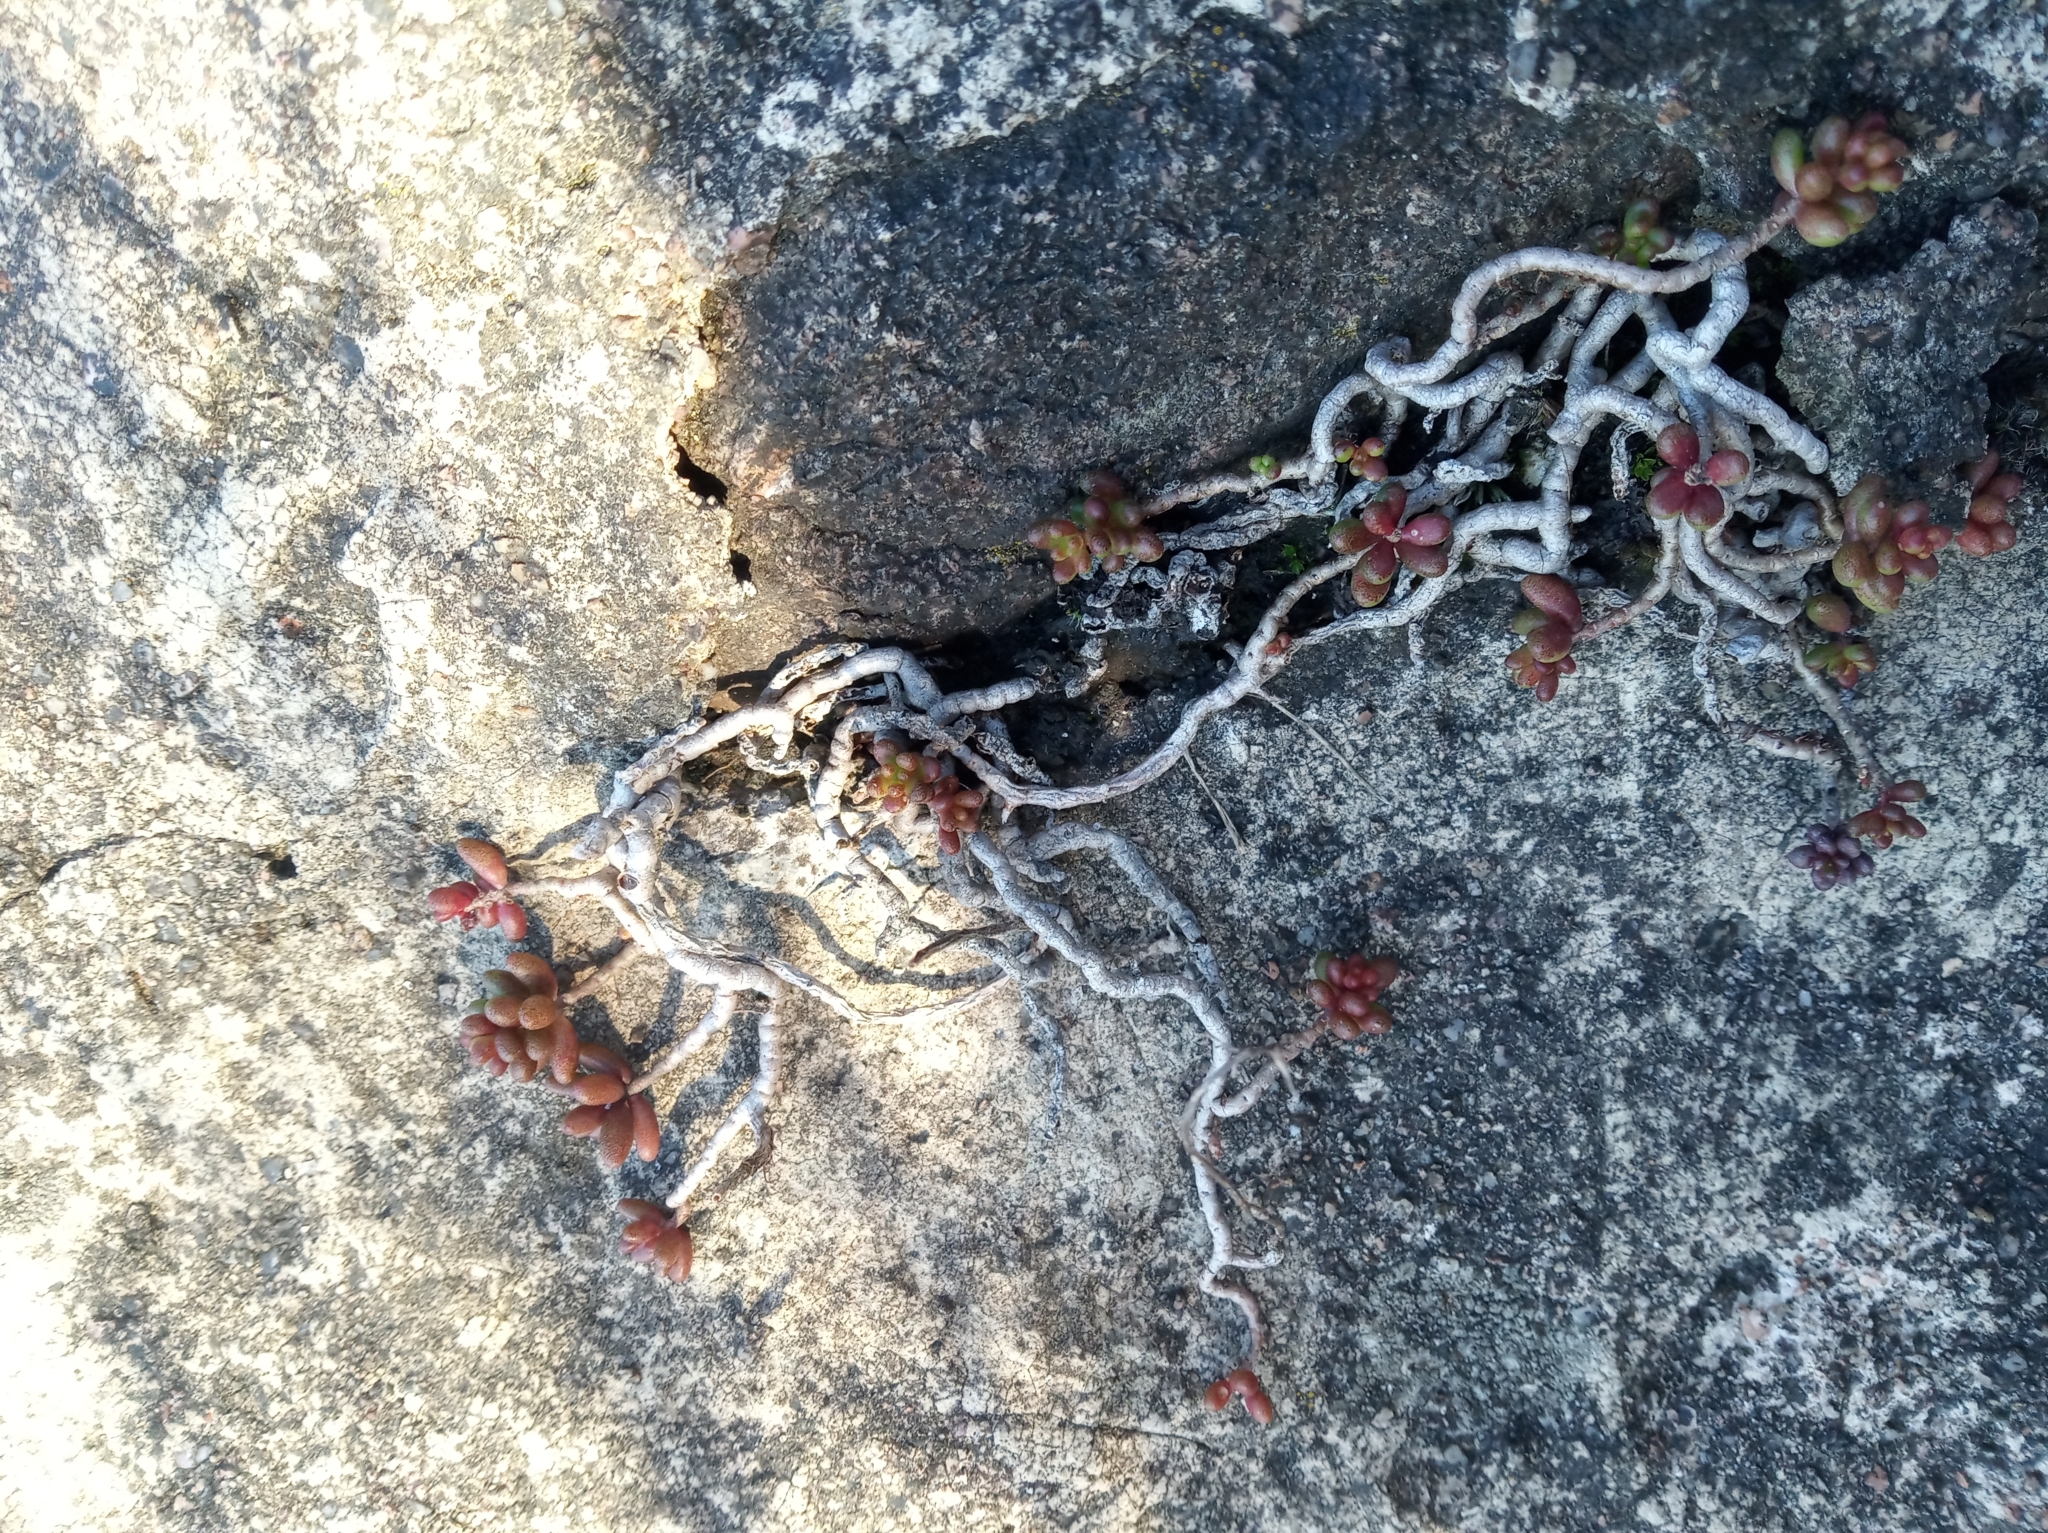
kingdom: Plantae
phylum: Tracheophyta
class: Magnoliopsida
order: Saxifragales
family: Crassulaceae
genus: Sedum
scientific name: Sedum album
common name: White stonecrop
